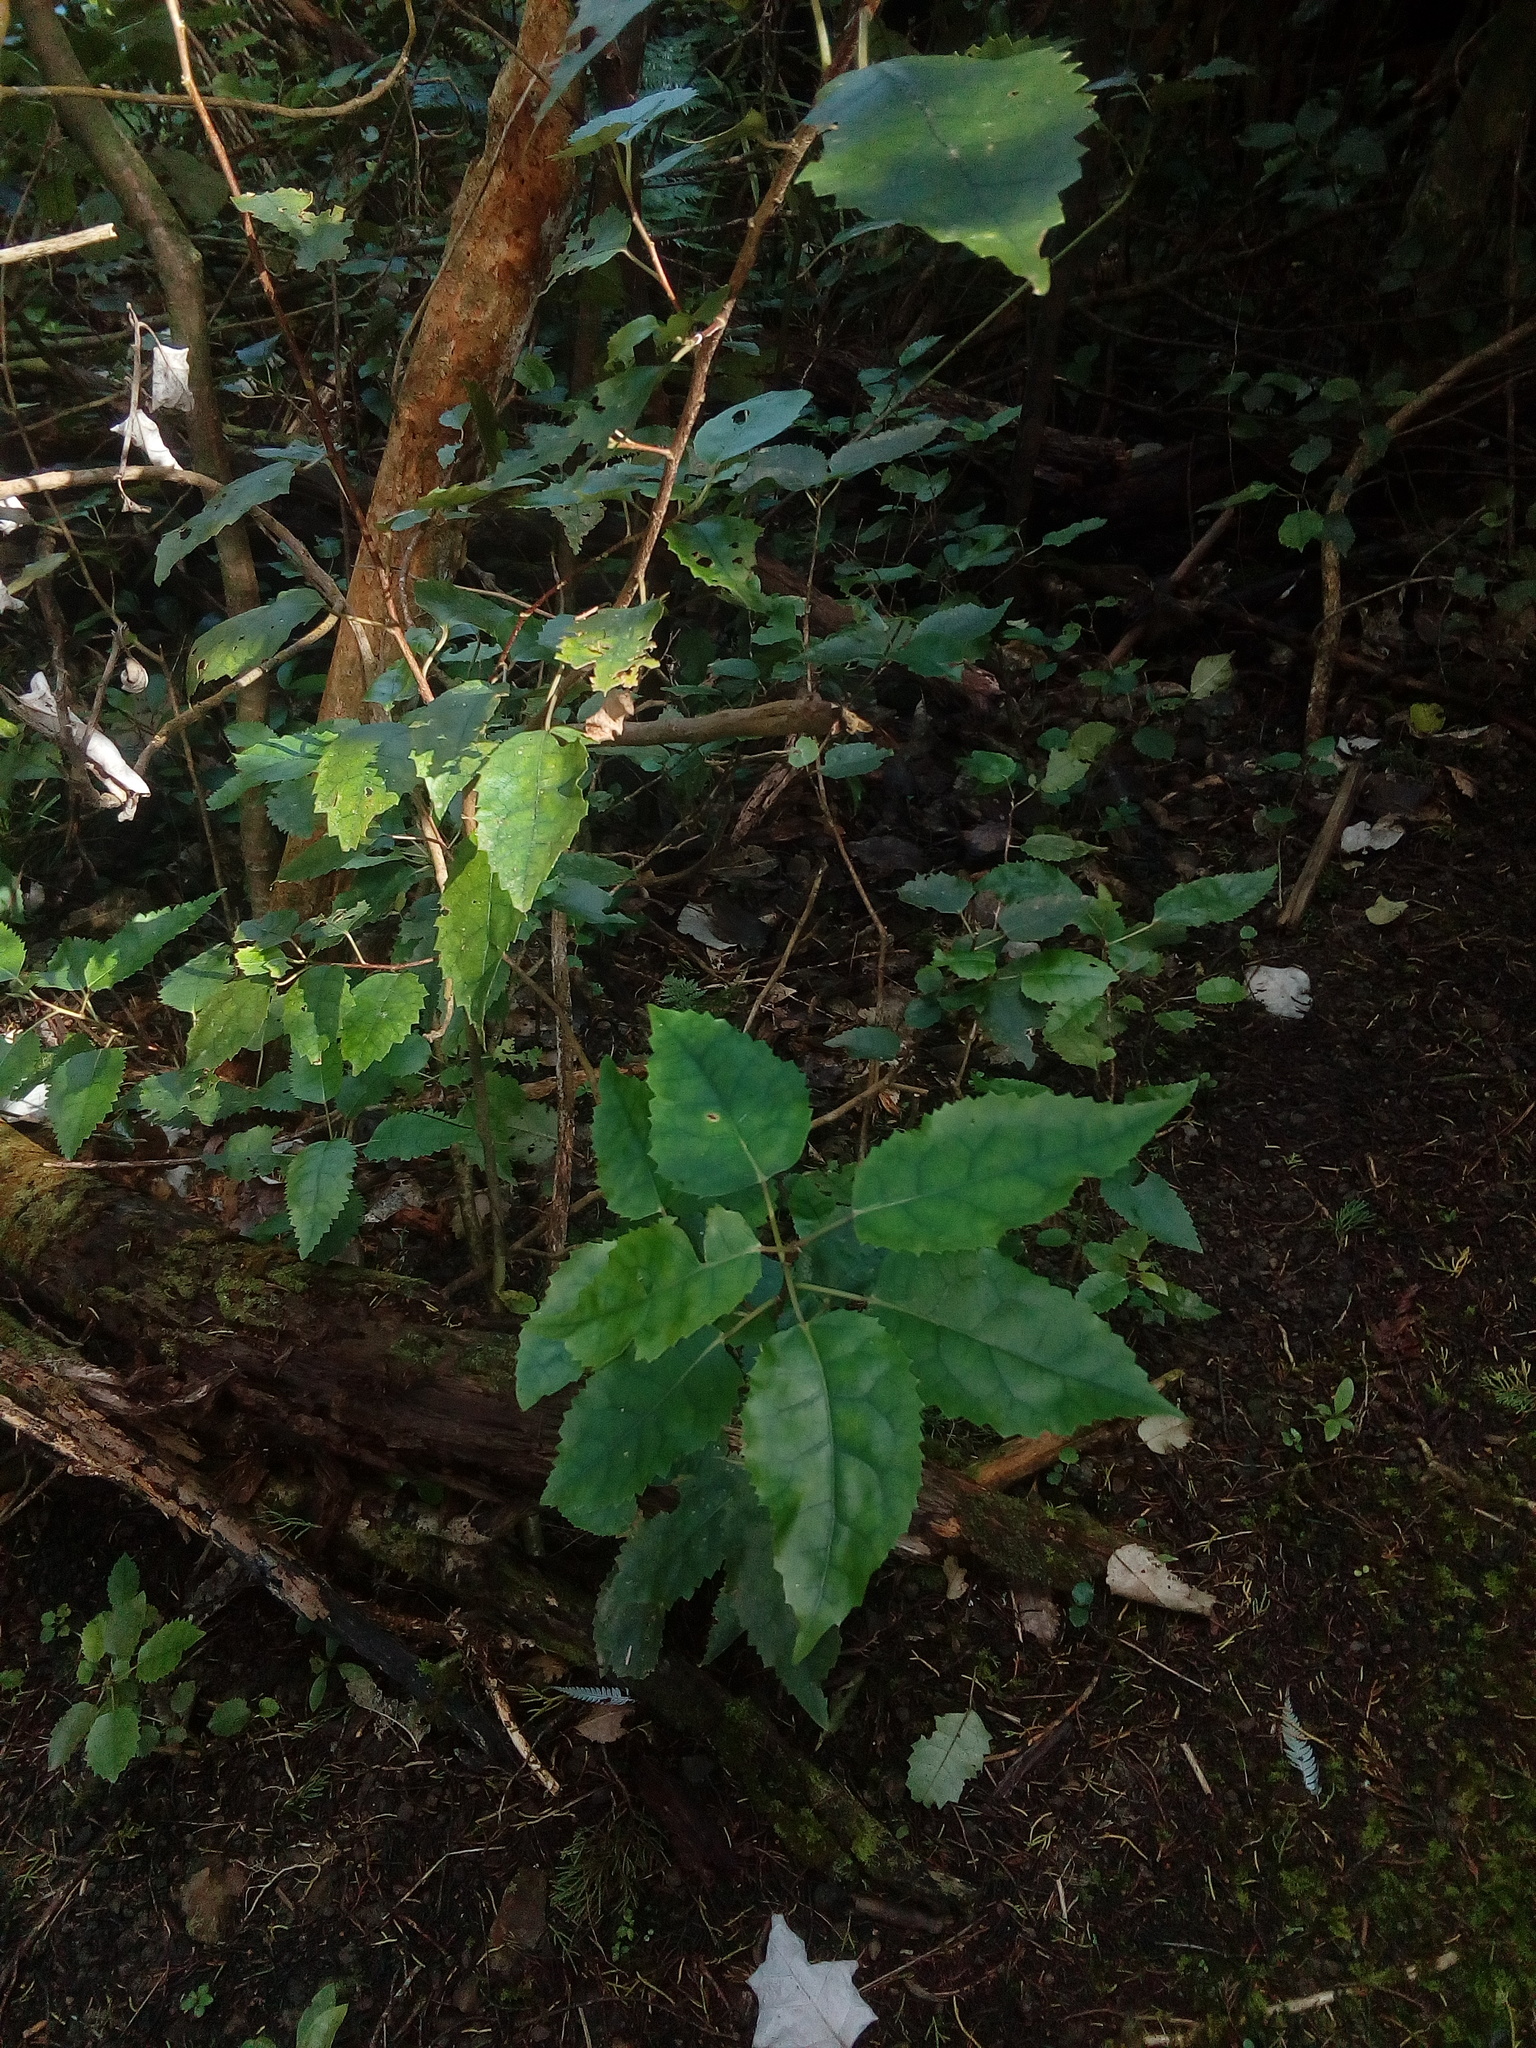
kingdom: Plantae
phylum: Tracheophyta
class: Magnoliopsida
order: Malvales
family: Malvaceae
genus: Hoheria
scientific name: Hoheria populnea
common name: Lacebark
